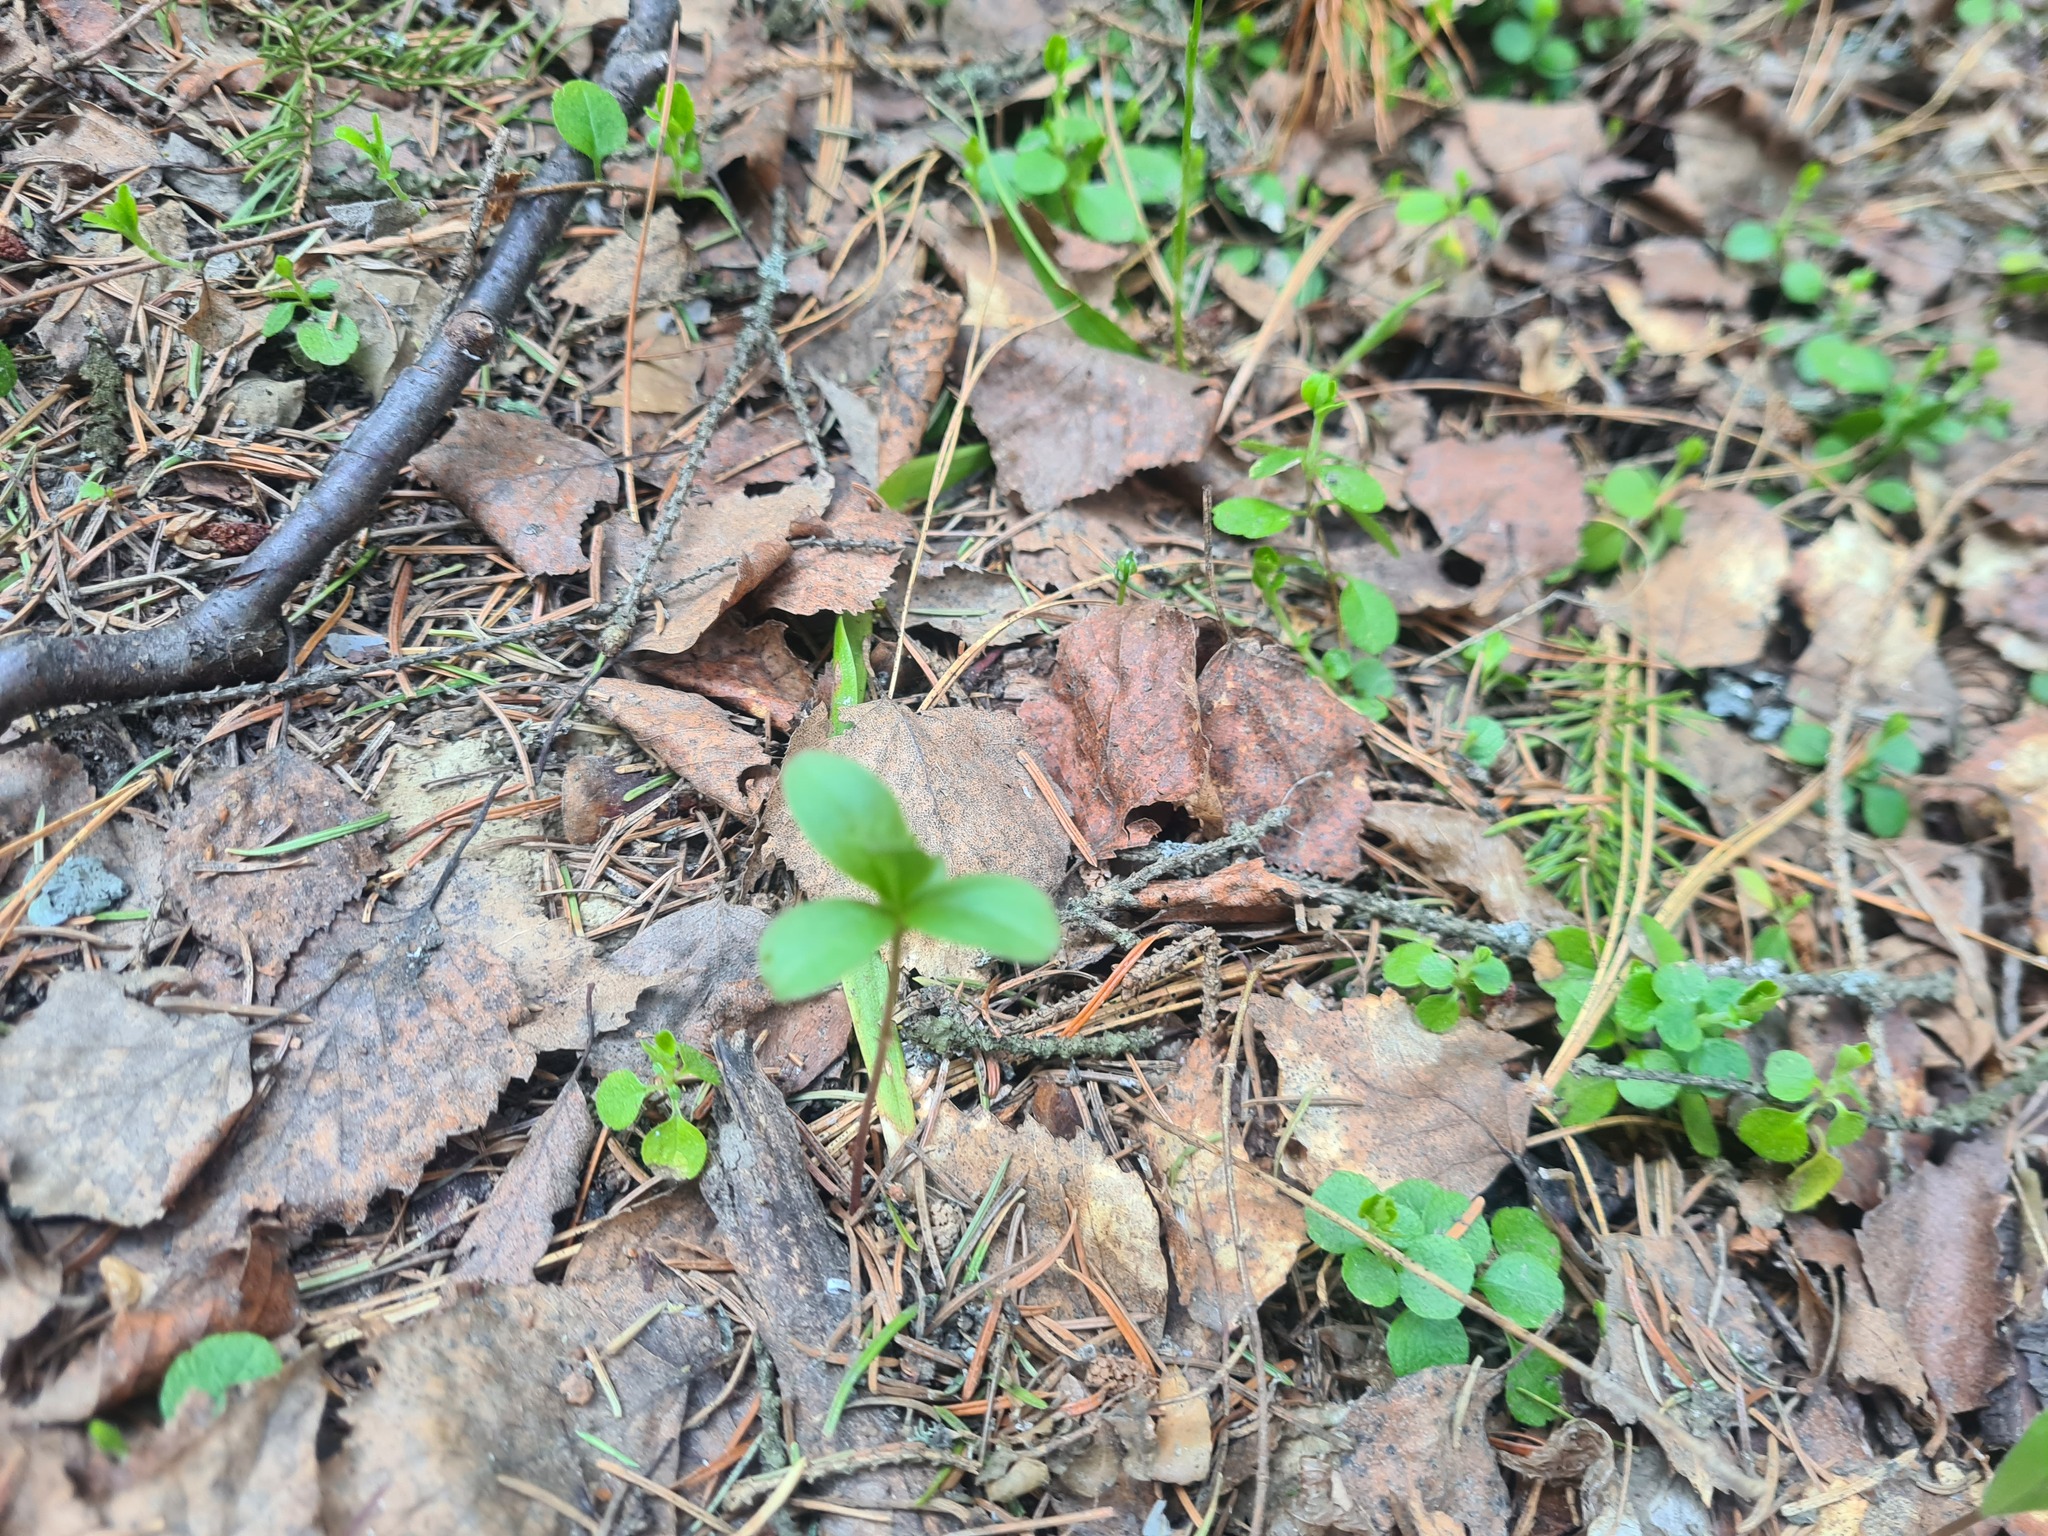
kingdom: Plantae
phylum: Tracheophyta
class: Magnoliopsida
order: Ericales
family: Primulaceae
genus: Lysimachia
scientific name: Lysimachia europaea
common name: Arctic starflower
